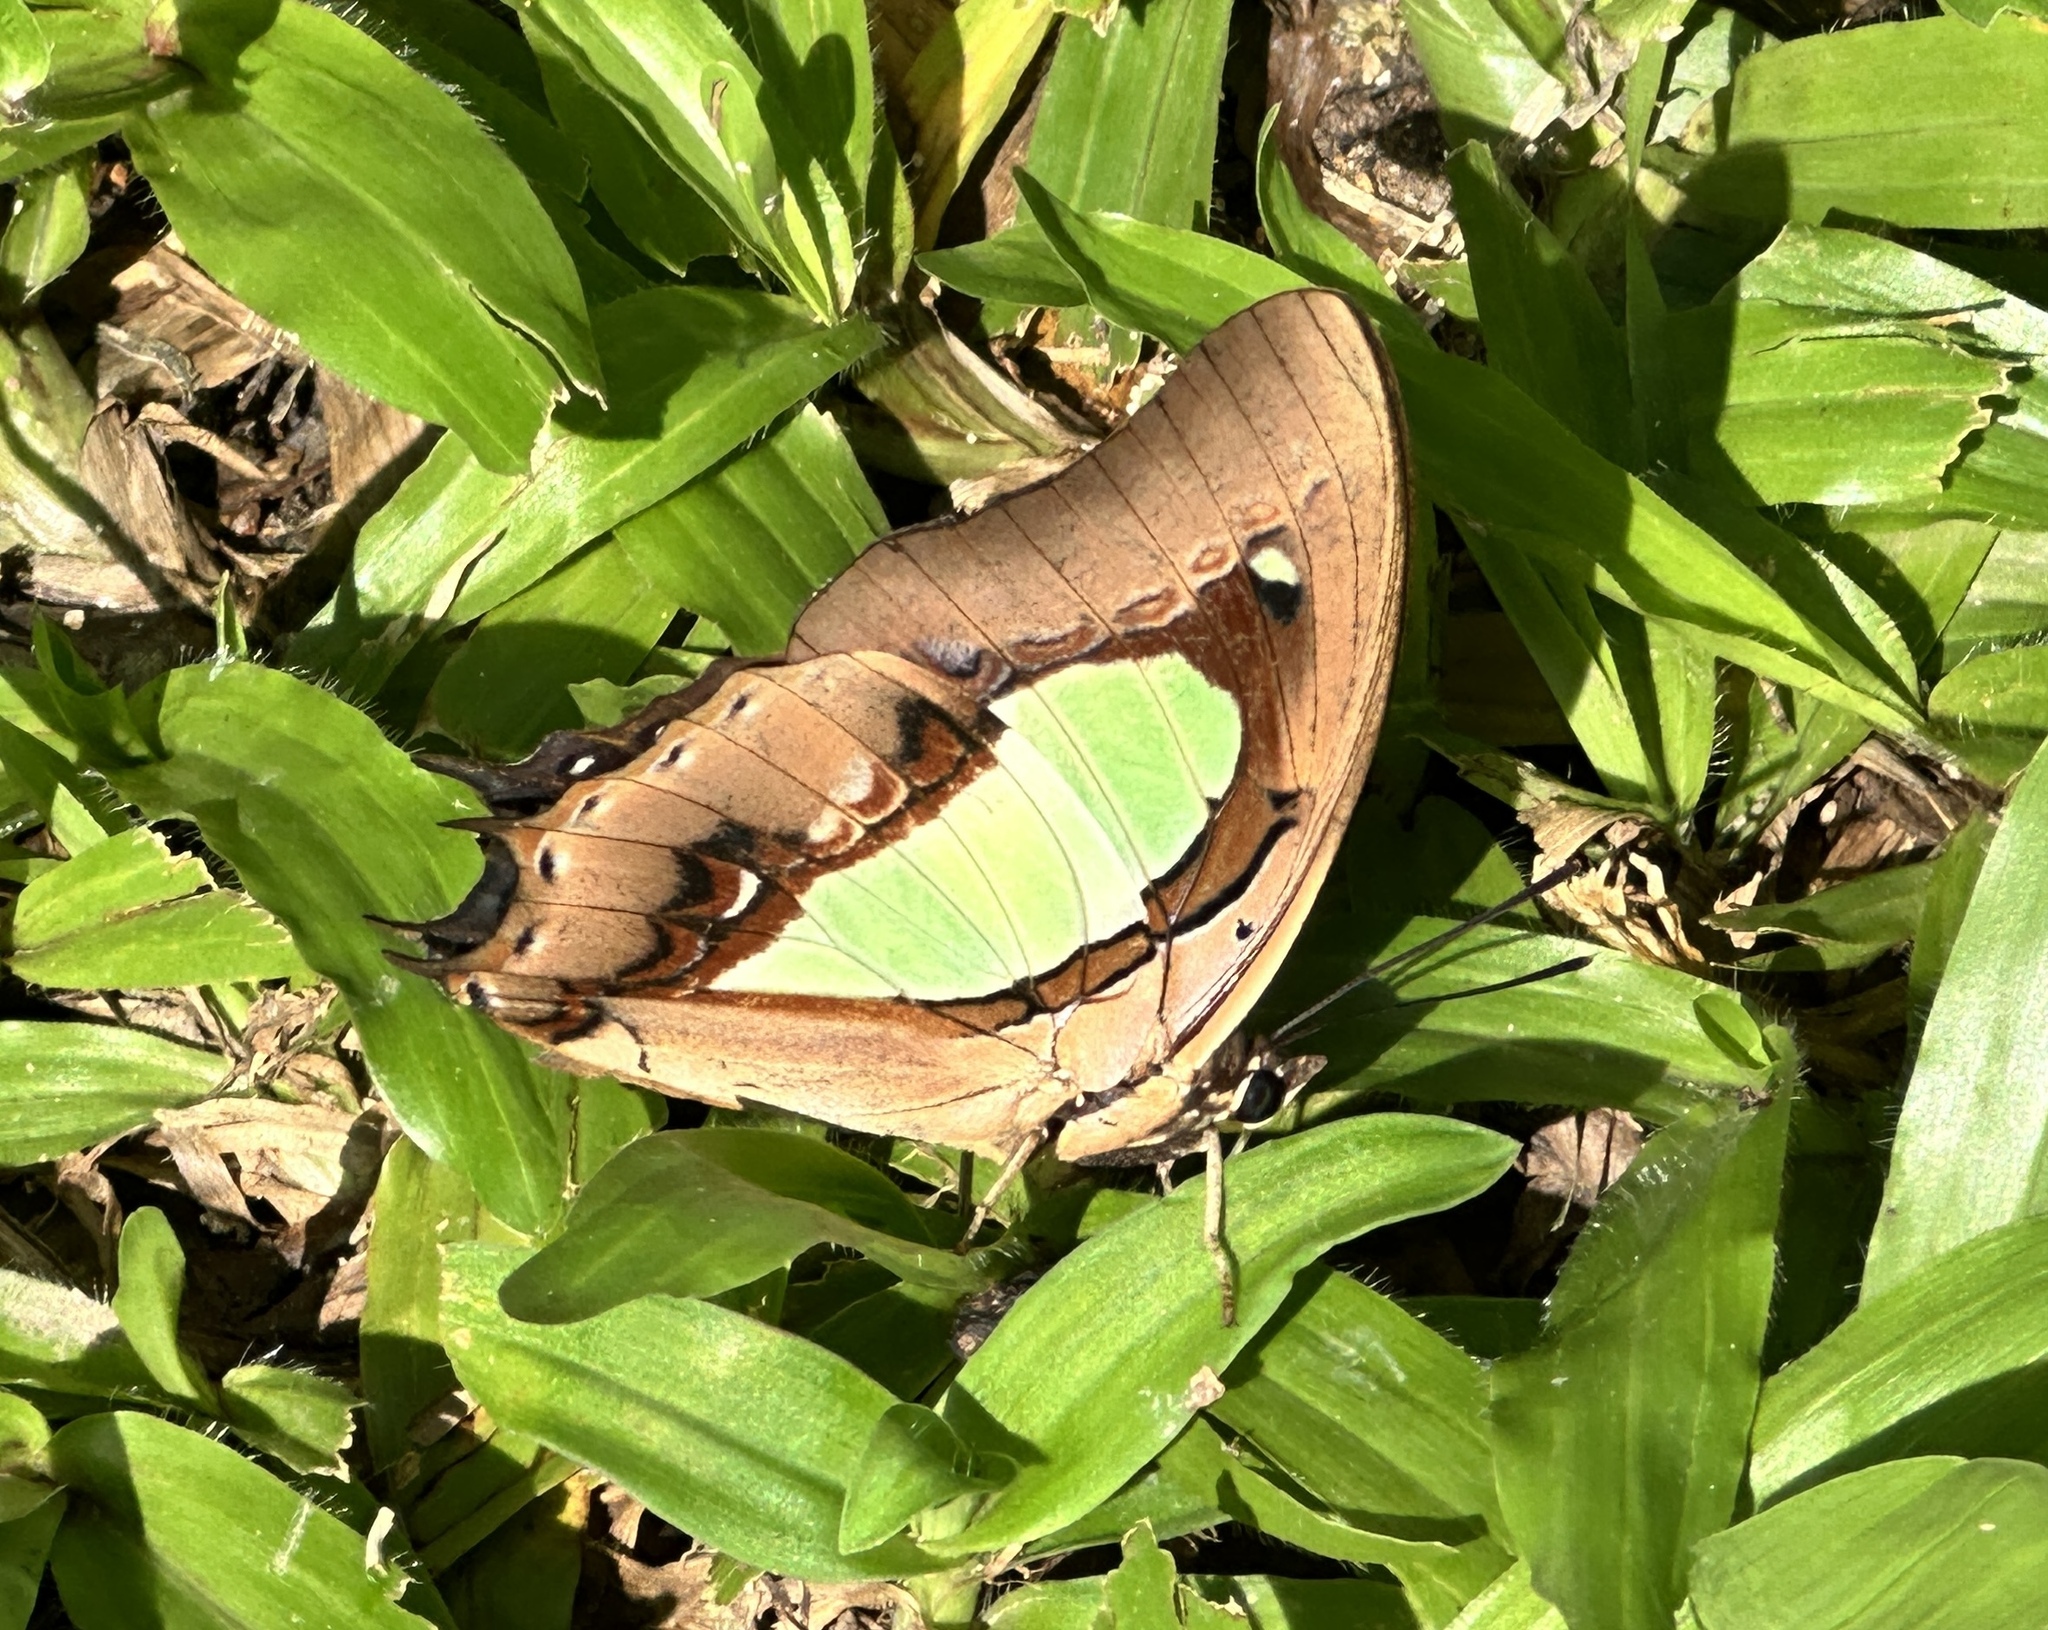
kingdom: Animalia
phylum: Arthropoda
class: Insecta
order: Lepidoptera
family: Nymphalidae
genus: Polyura
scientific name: Polyura hebe
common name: Plain nawab
